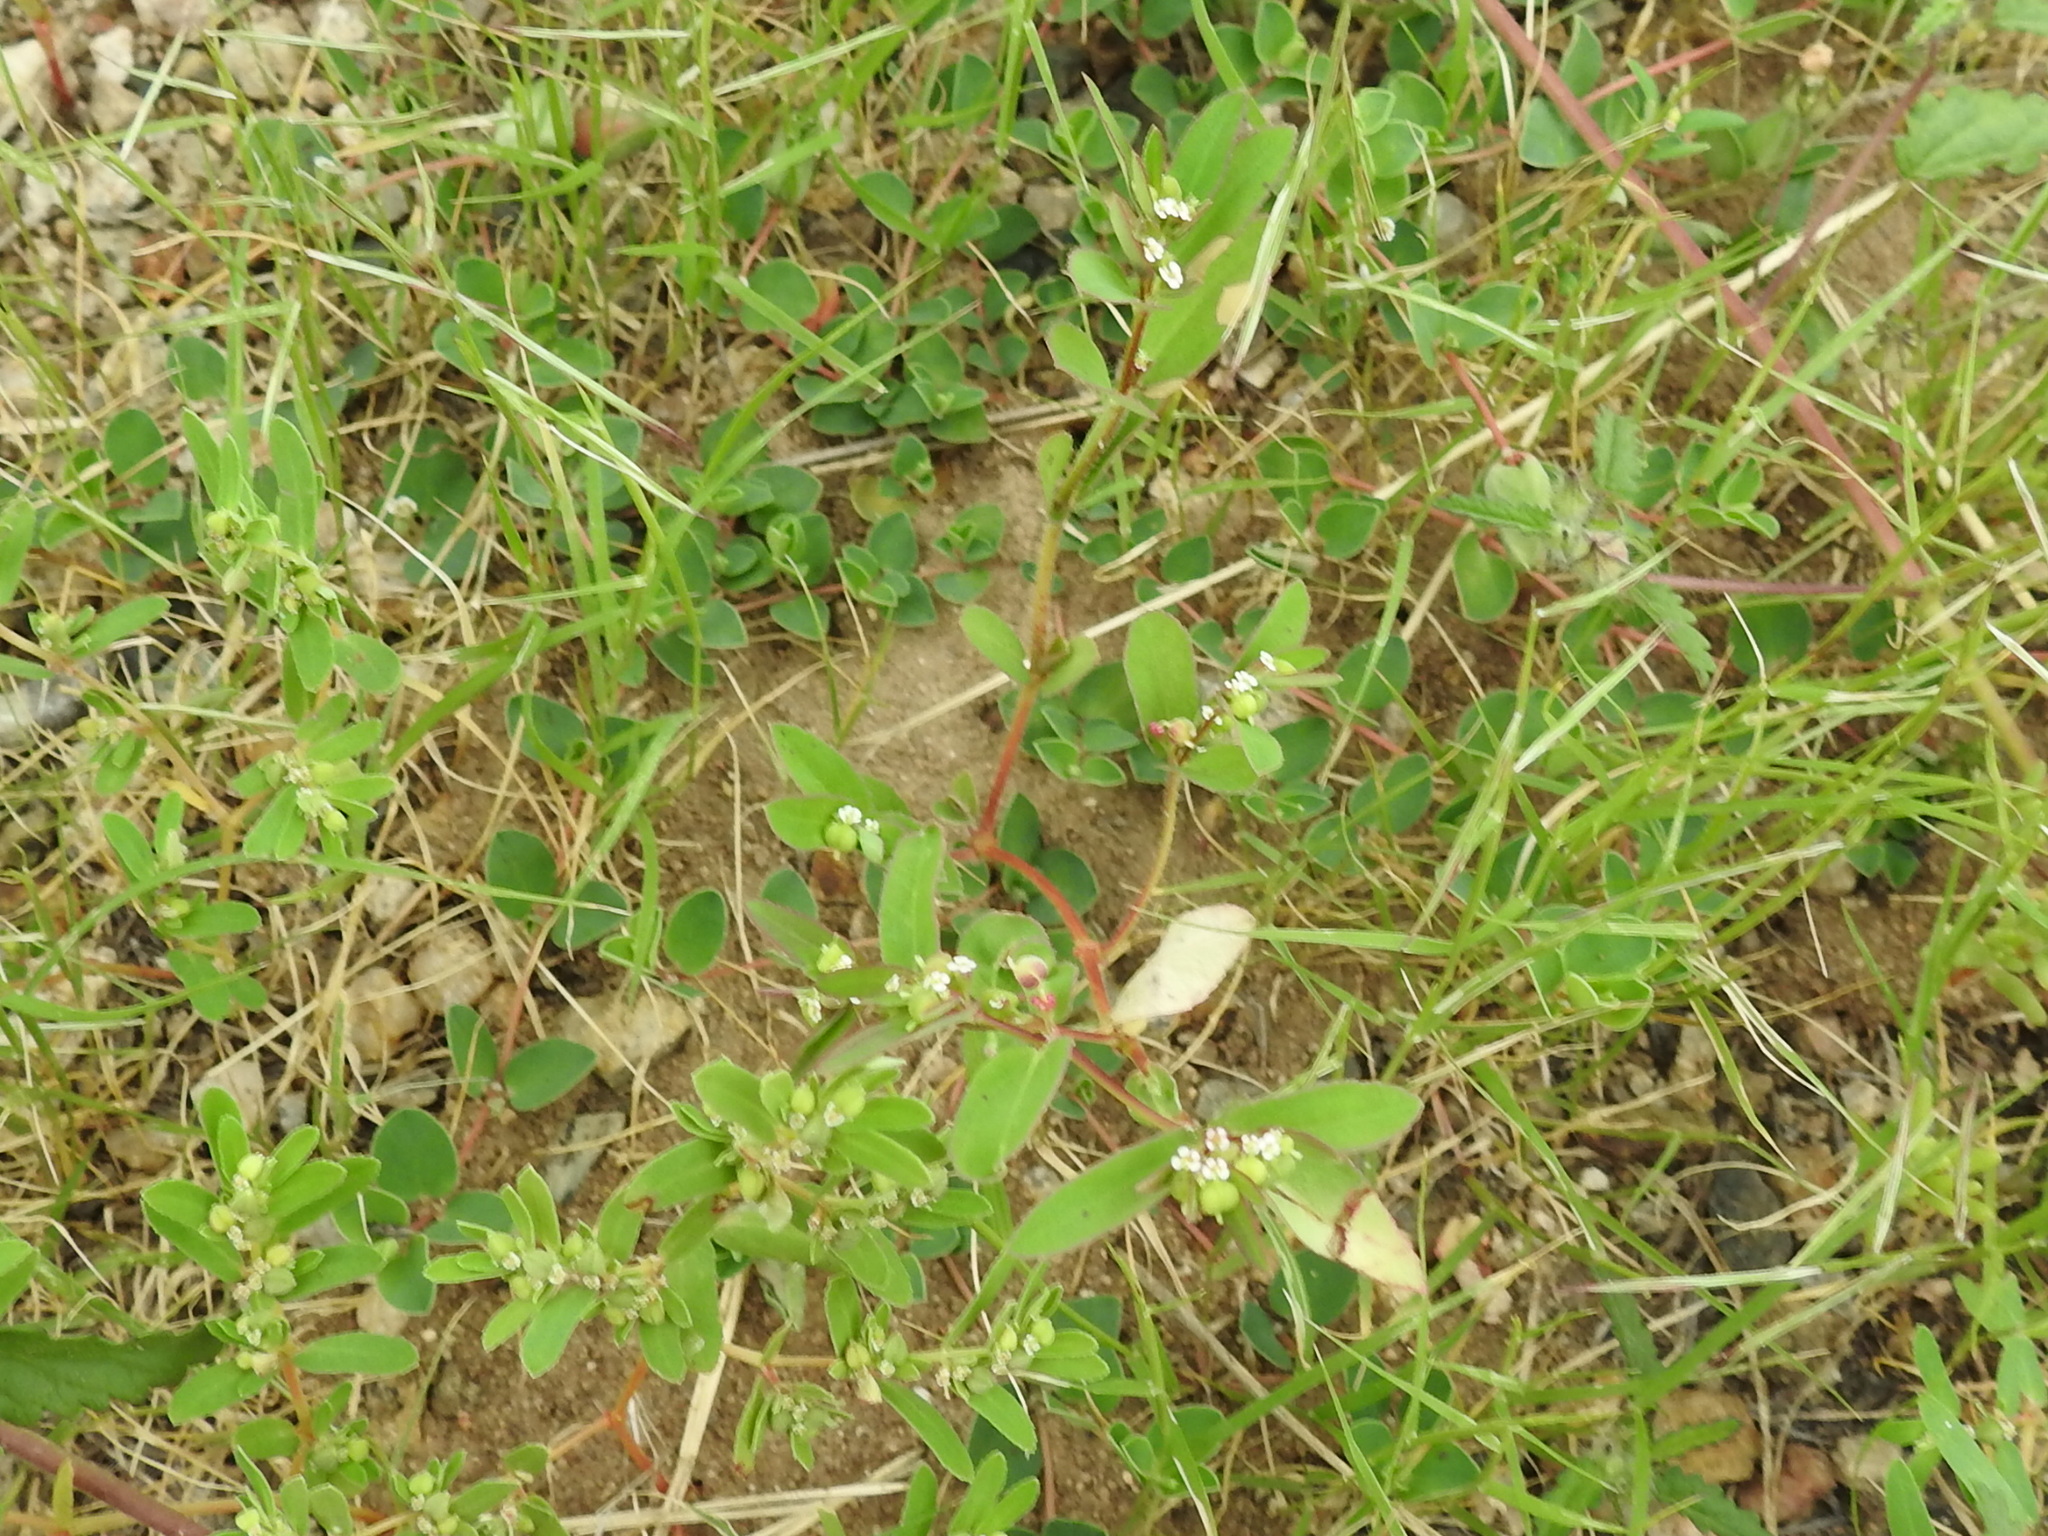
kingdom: Plantae
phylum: Tracheophyta
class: Magnoliopsida
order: Malpighiales
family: Euphorbiaceae
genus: Euphorbia
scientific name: Euphorbia hyssopifolia
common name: Hyssopleaf sandmat
